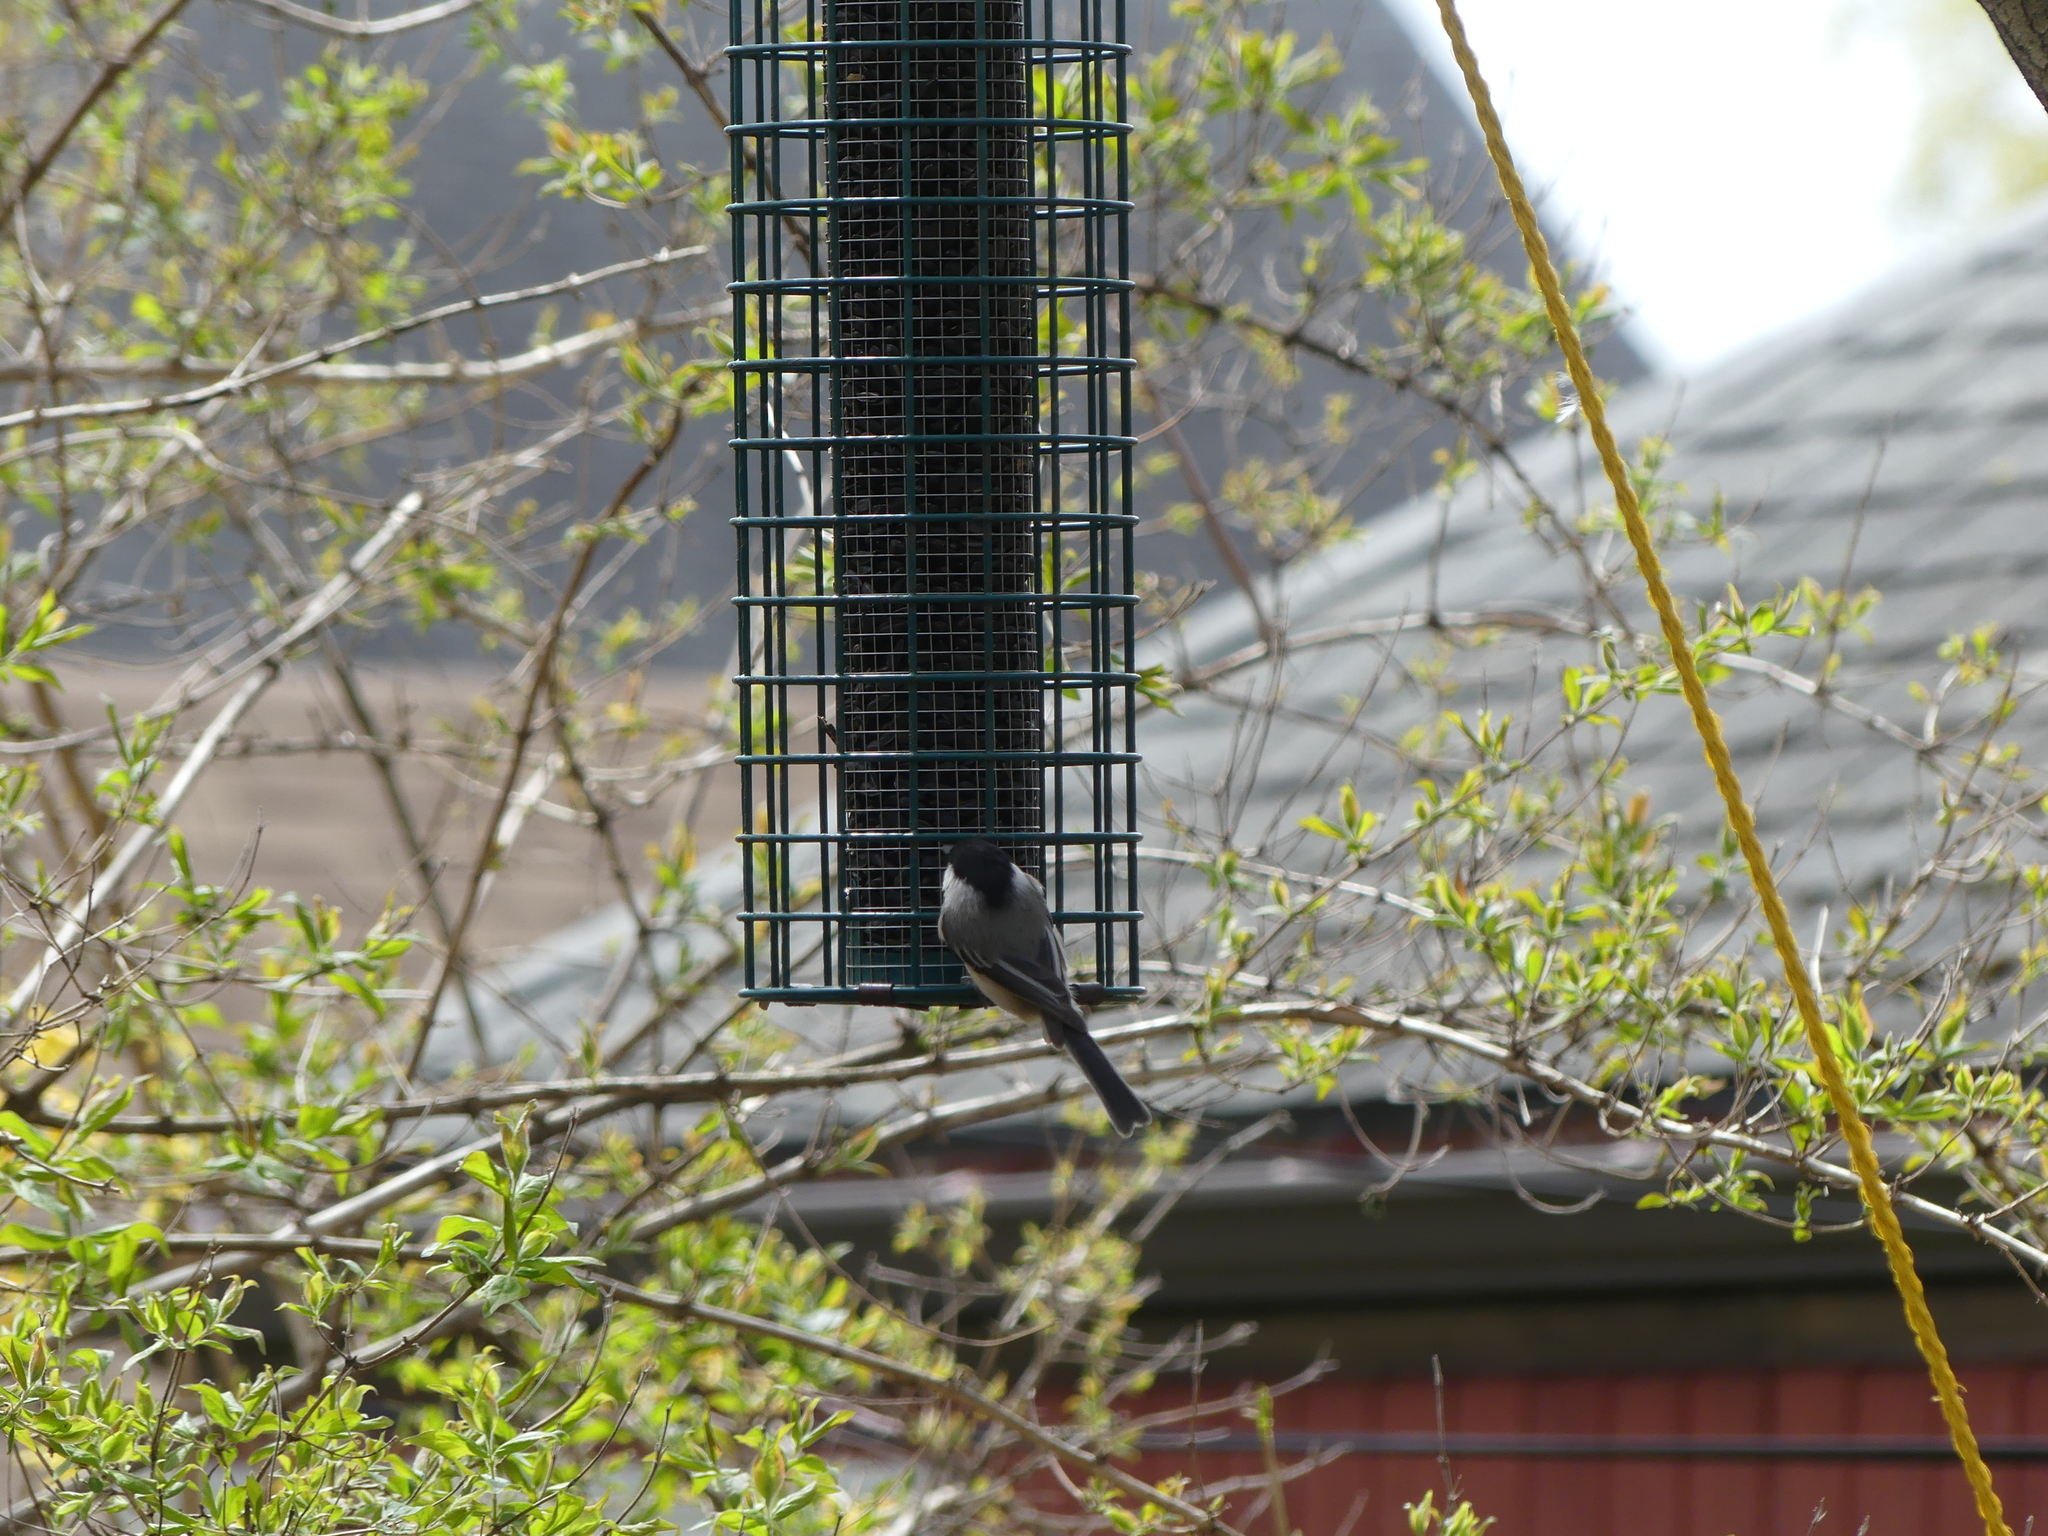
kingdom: Animalia
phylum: Chordata
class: Aves
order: Passeriformes
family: Paridae
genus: Poecile
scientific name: Poecile atricapillus
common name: Black-capped chickadee
